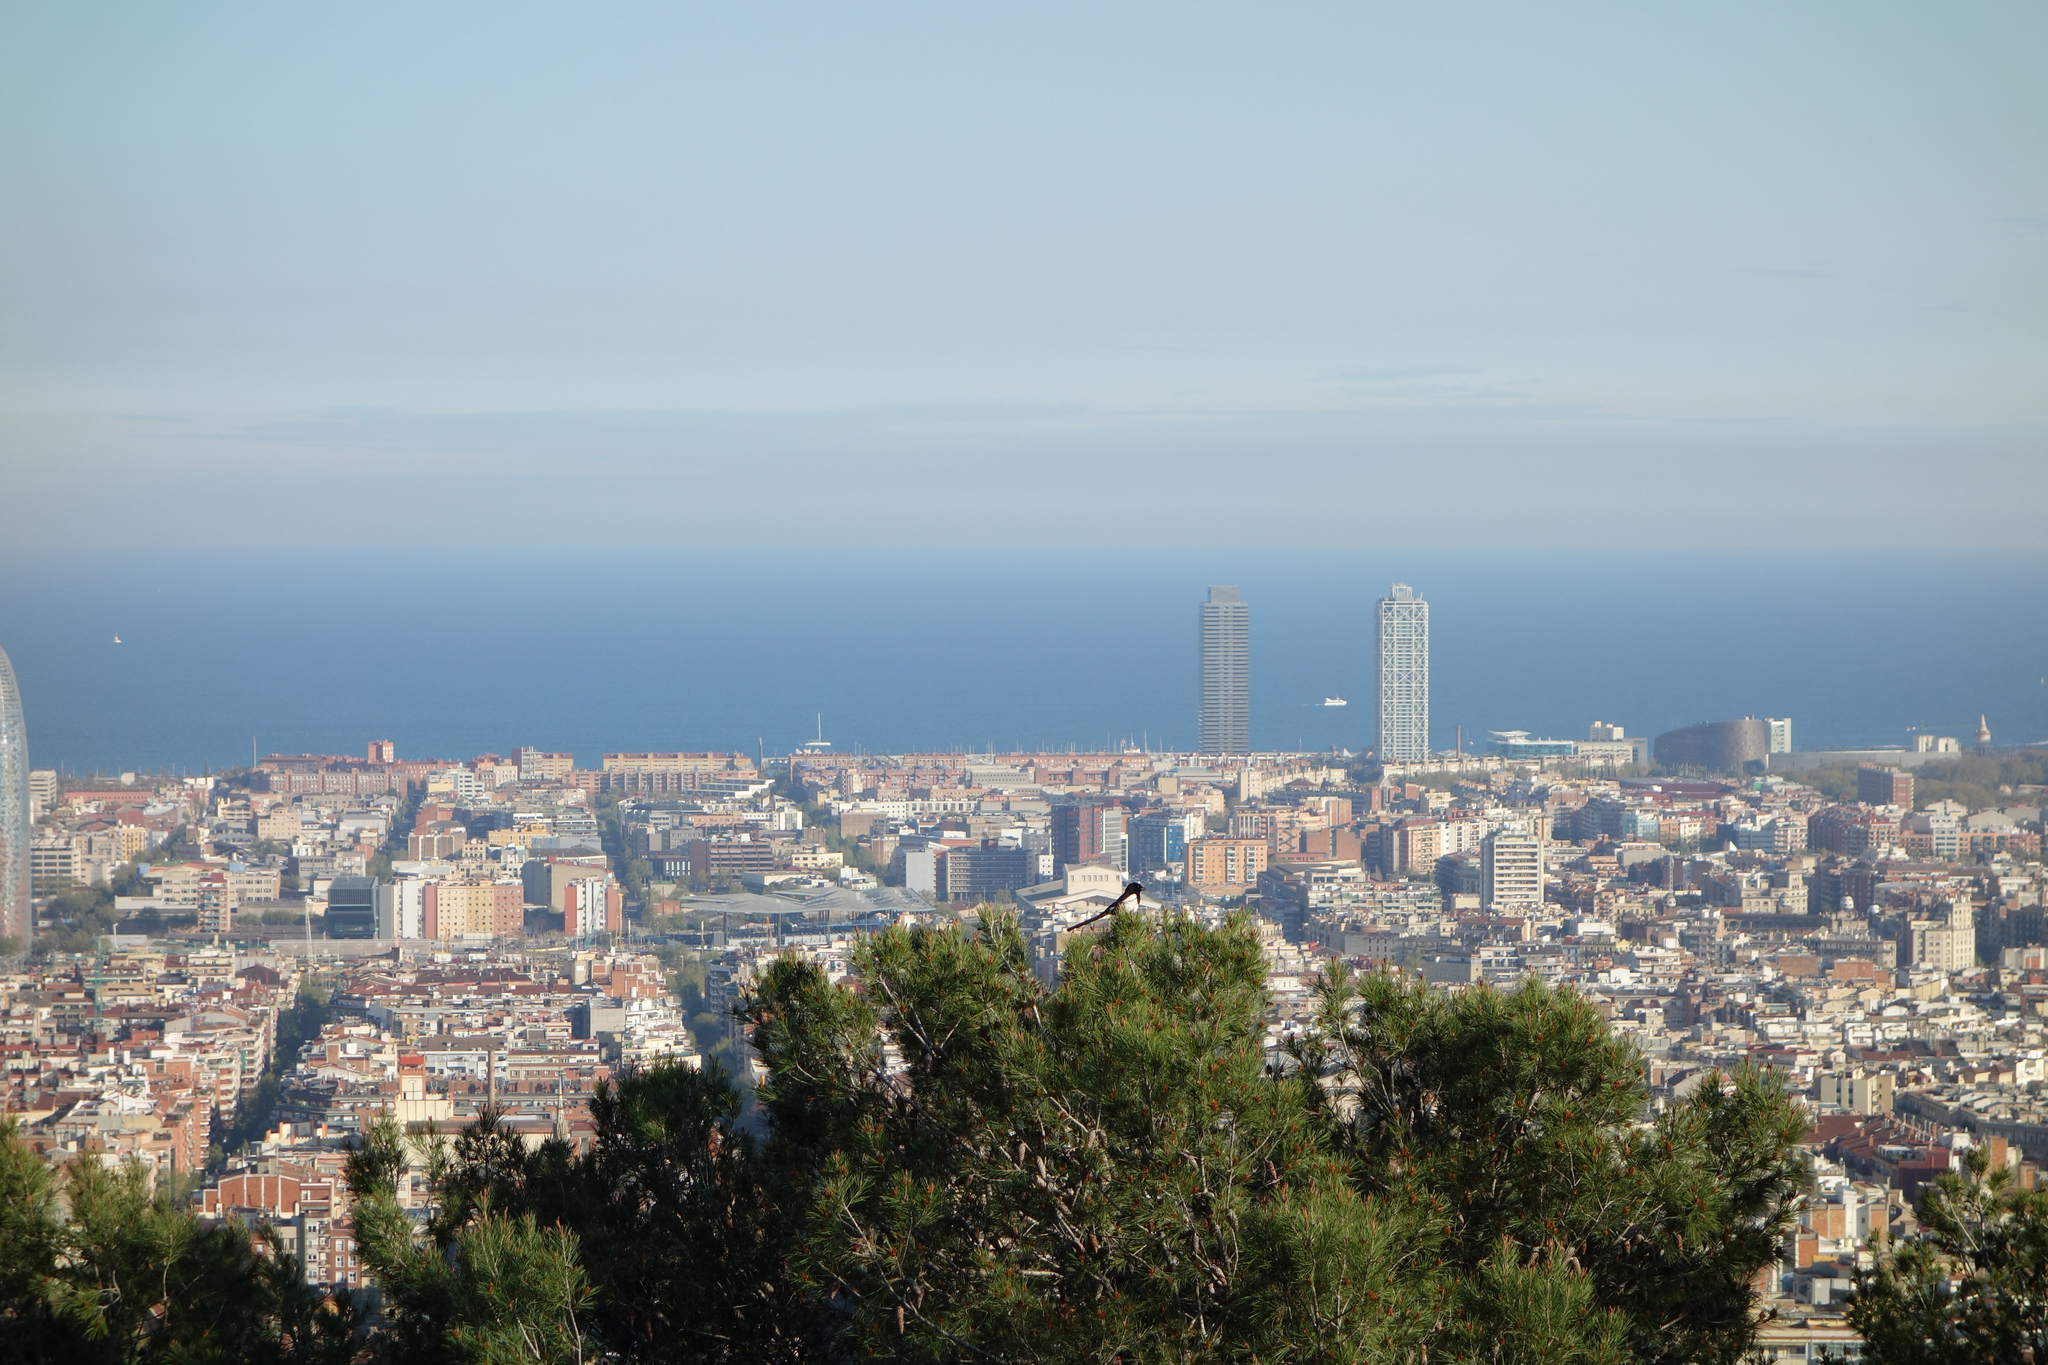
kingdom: Animalia
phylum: Chordata
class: Aves
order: Passeriformes
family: Corvidae
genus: Pica
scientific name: Pica pica
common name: Eurasian magpie
